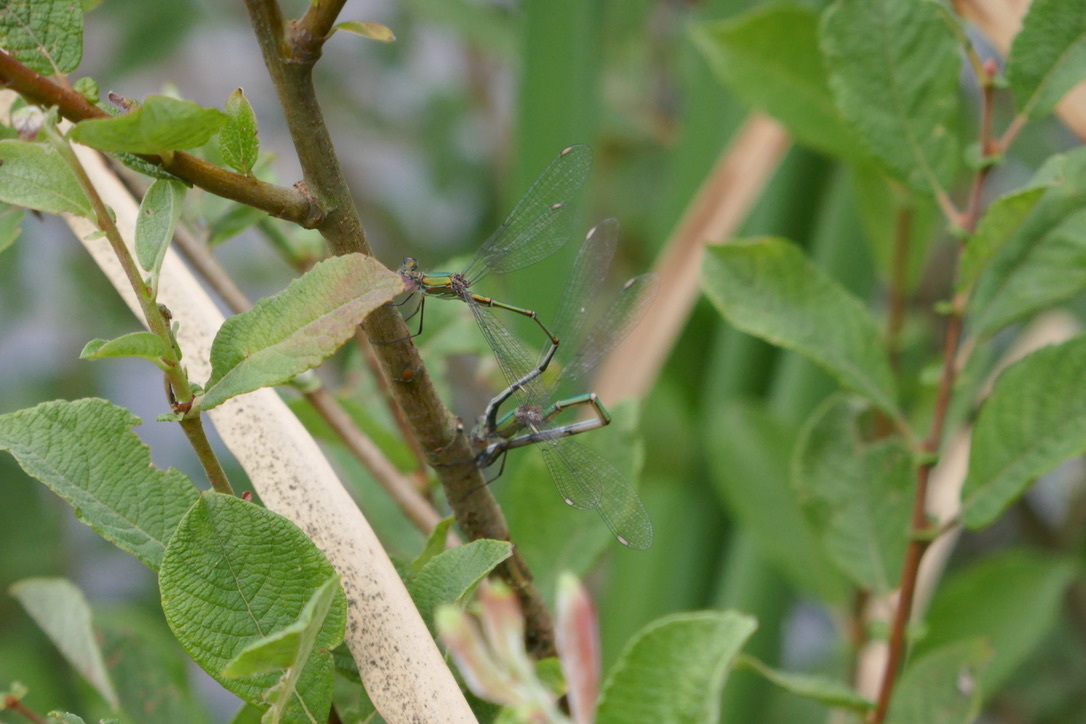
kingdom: Animalia
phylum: Arthropoda
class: Insecta
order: Odonata
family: Lestidae
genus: Chalcolestes
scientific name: Chalcolestes viridis
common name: Green emerald damselfly
